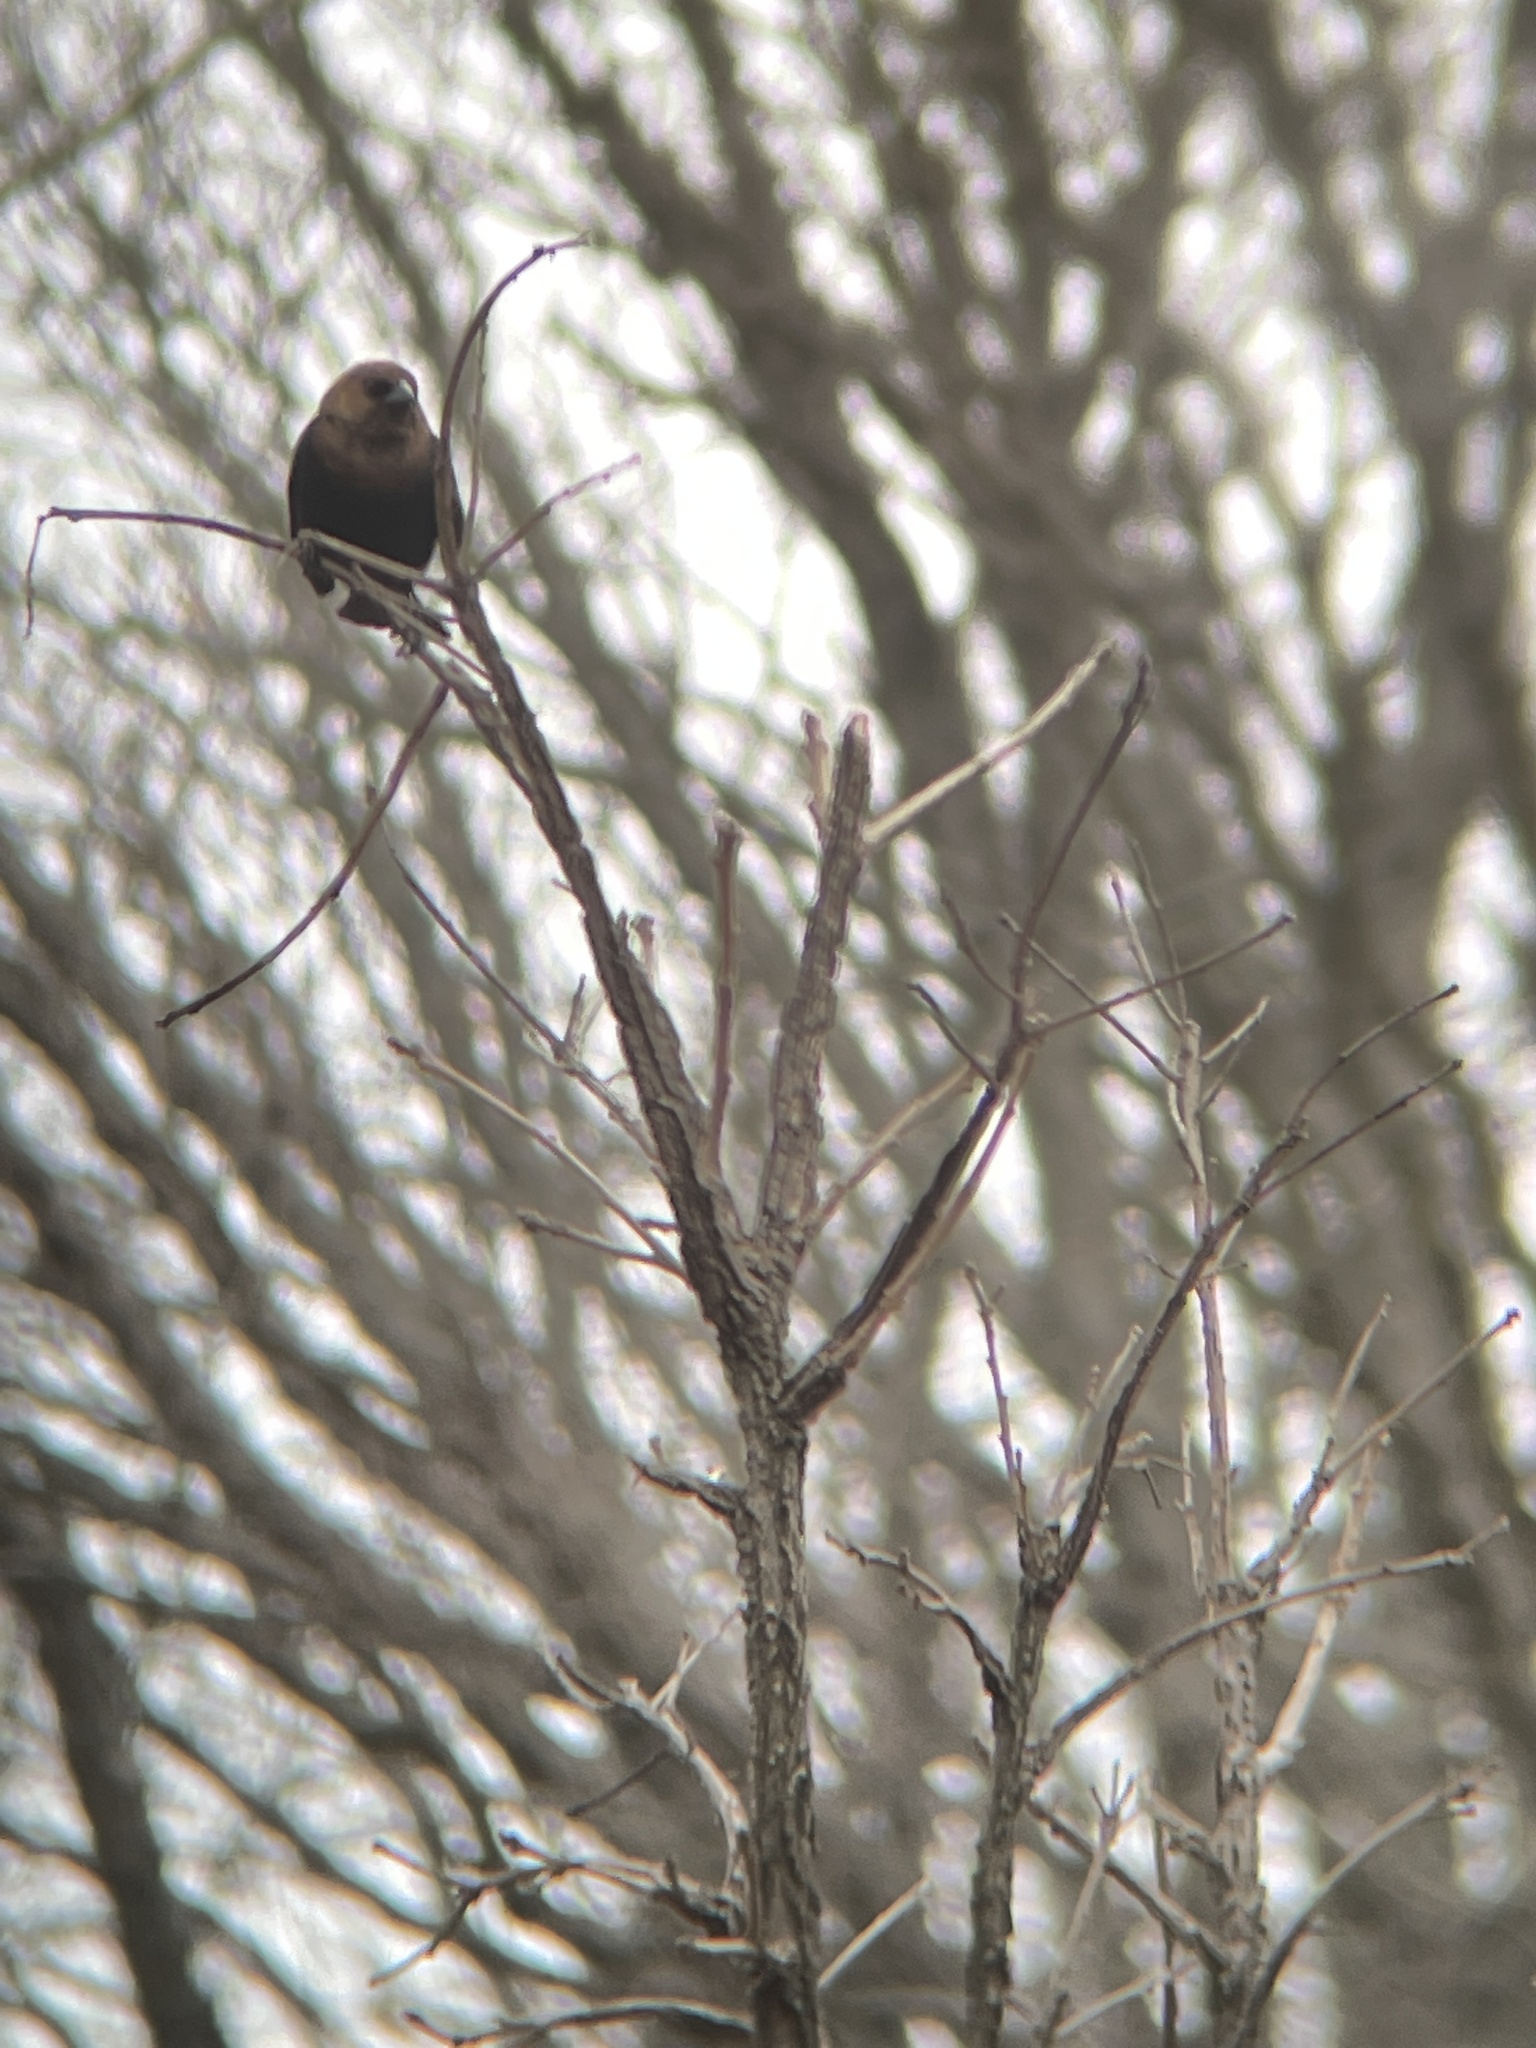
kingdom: Animalia
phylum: Chordata
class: Aves
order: Passeriformes
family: Icteridae
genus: Molothrus
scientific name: Molothrus ater
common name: Brown-headed cowbird
